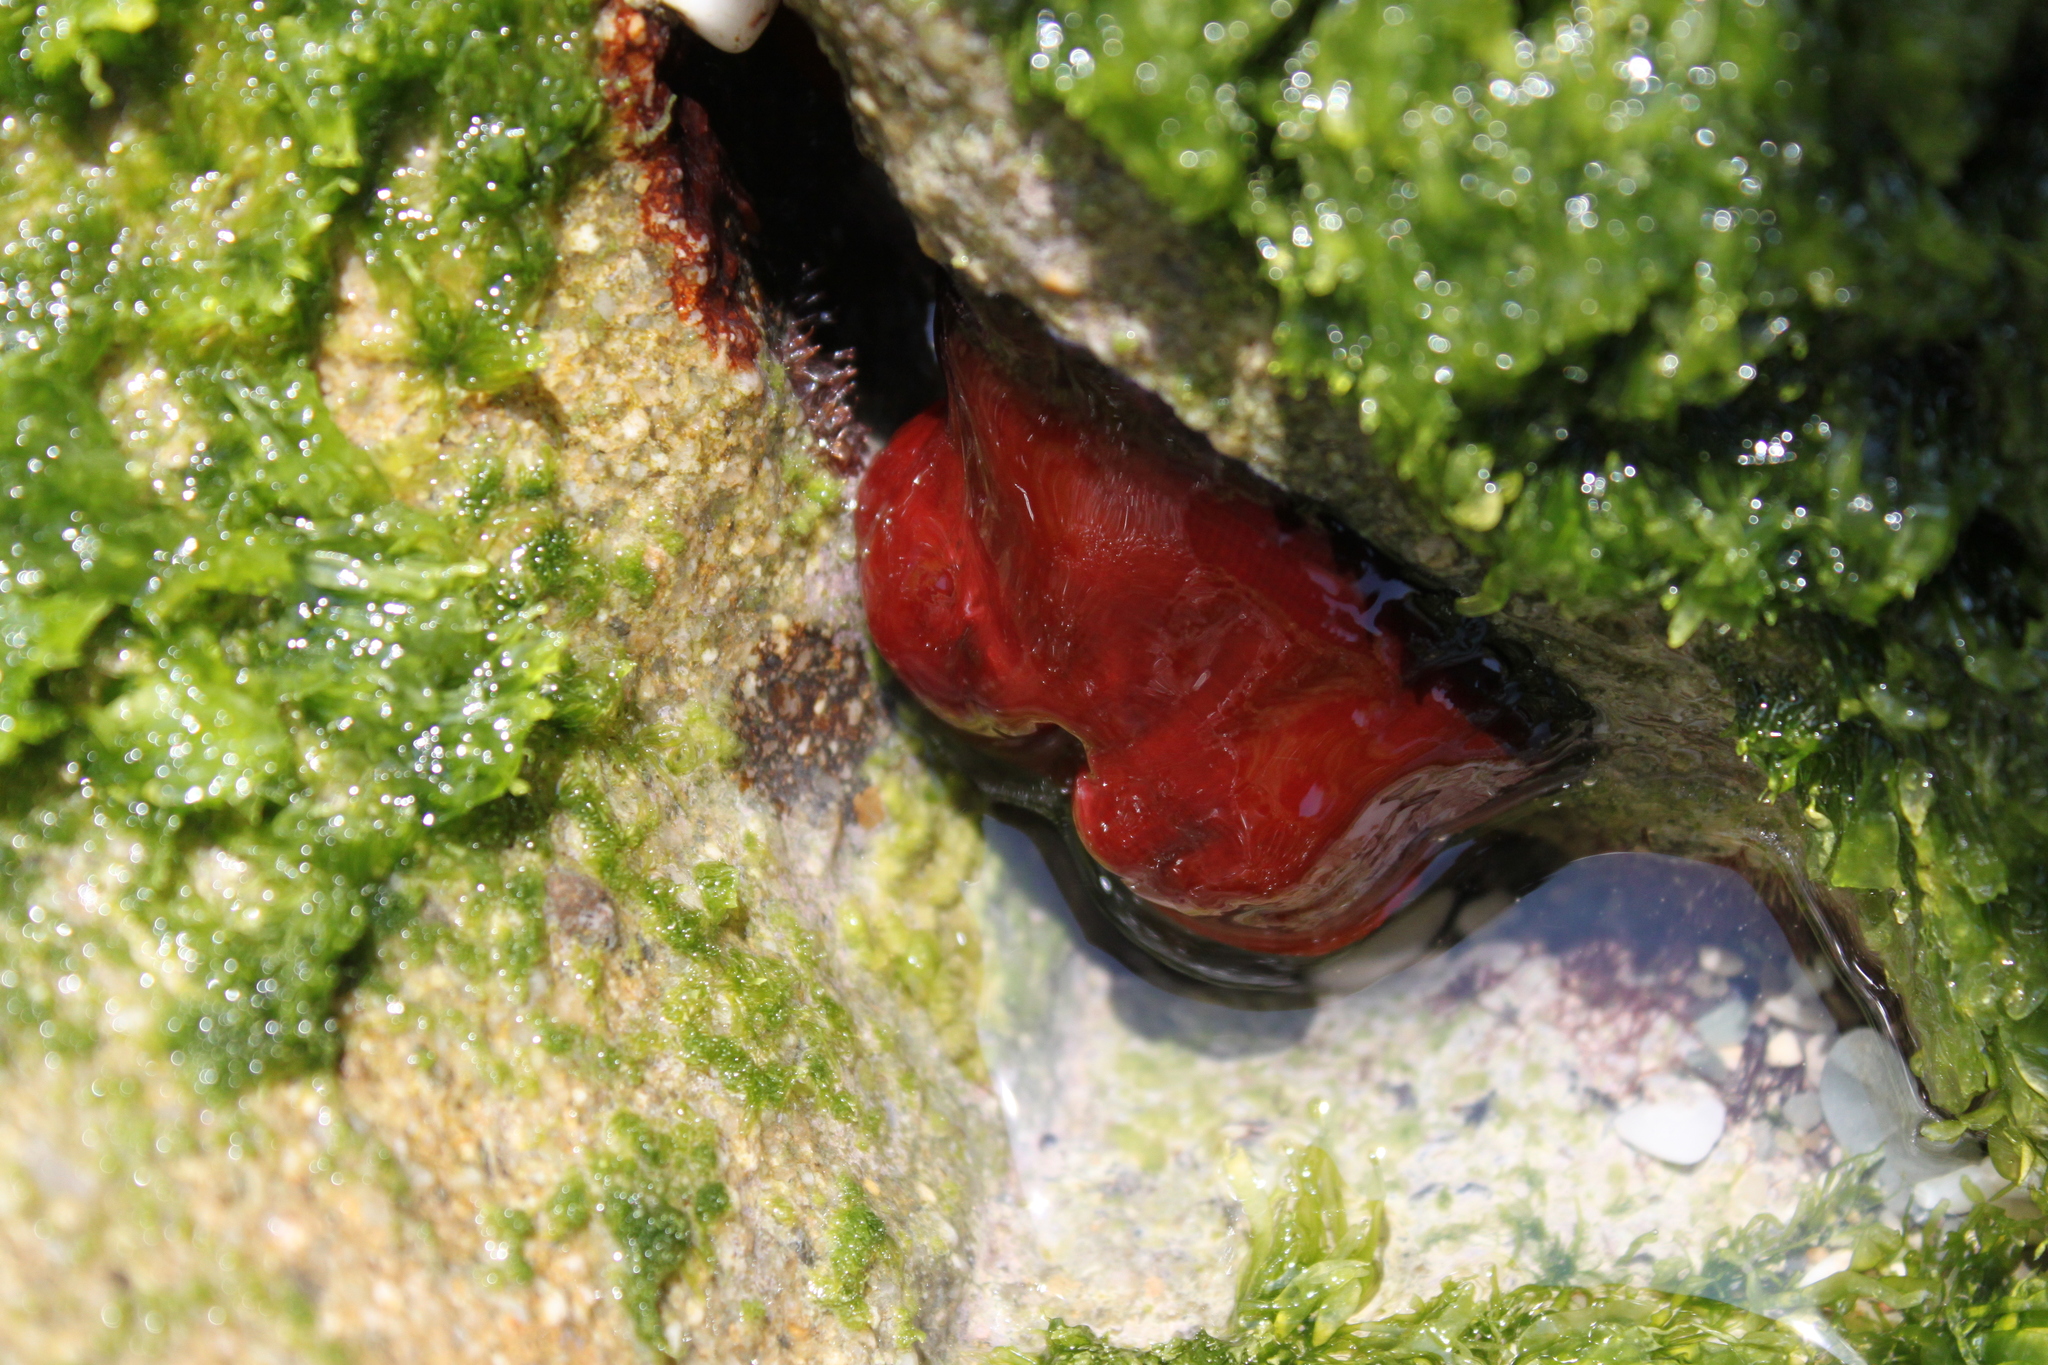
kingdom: Animalia
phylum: Cnidaria
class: Anthozoa
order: Actiniaria
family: Actiniidae
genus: Actinia
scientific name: Actinia mediterranea
